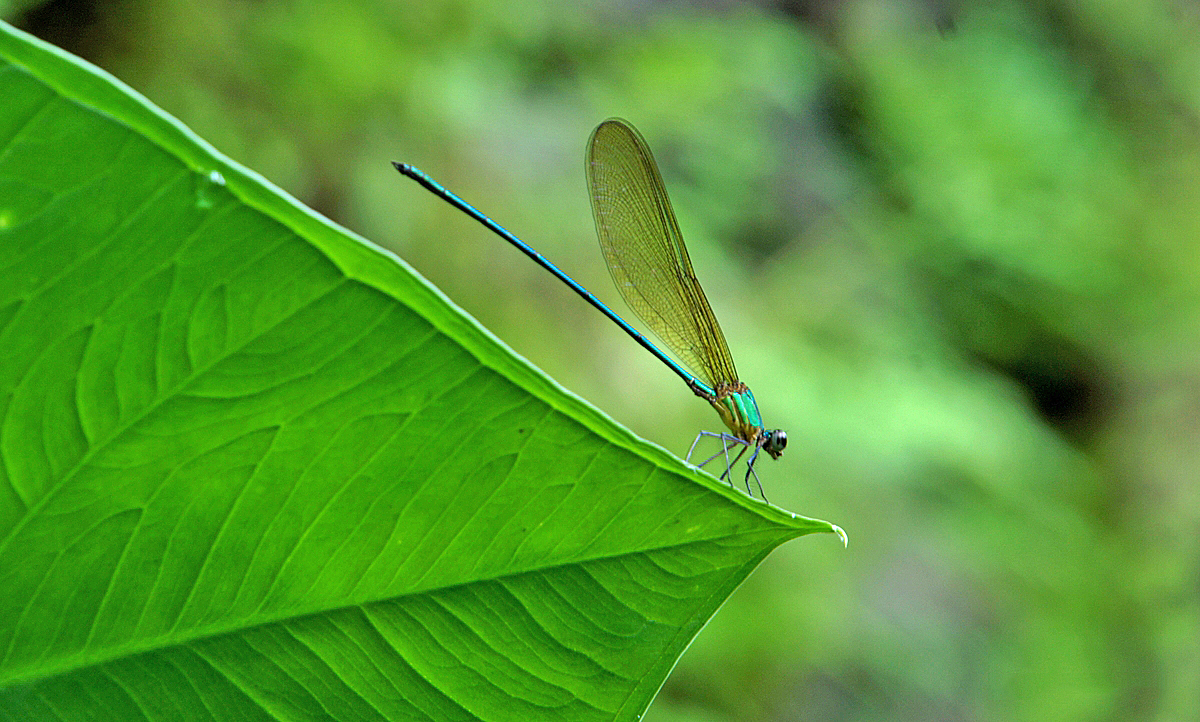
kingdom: Animalia
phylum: Arthropoda
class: Insecta
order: Odonata
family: Calopterygidae
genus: Vestalis
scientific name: Vestalis gracilis
